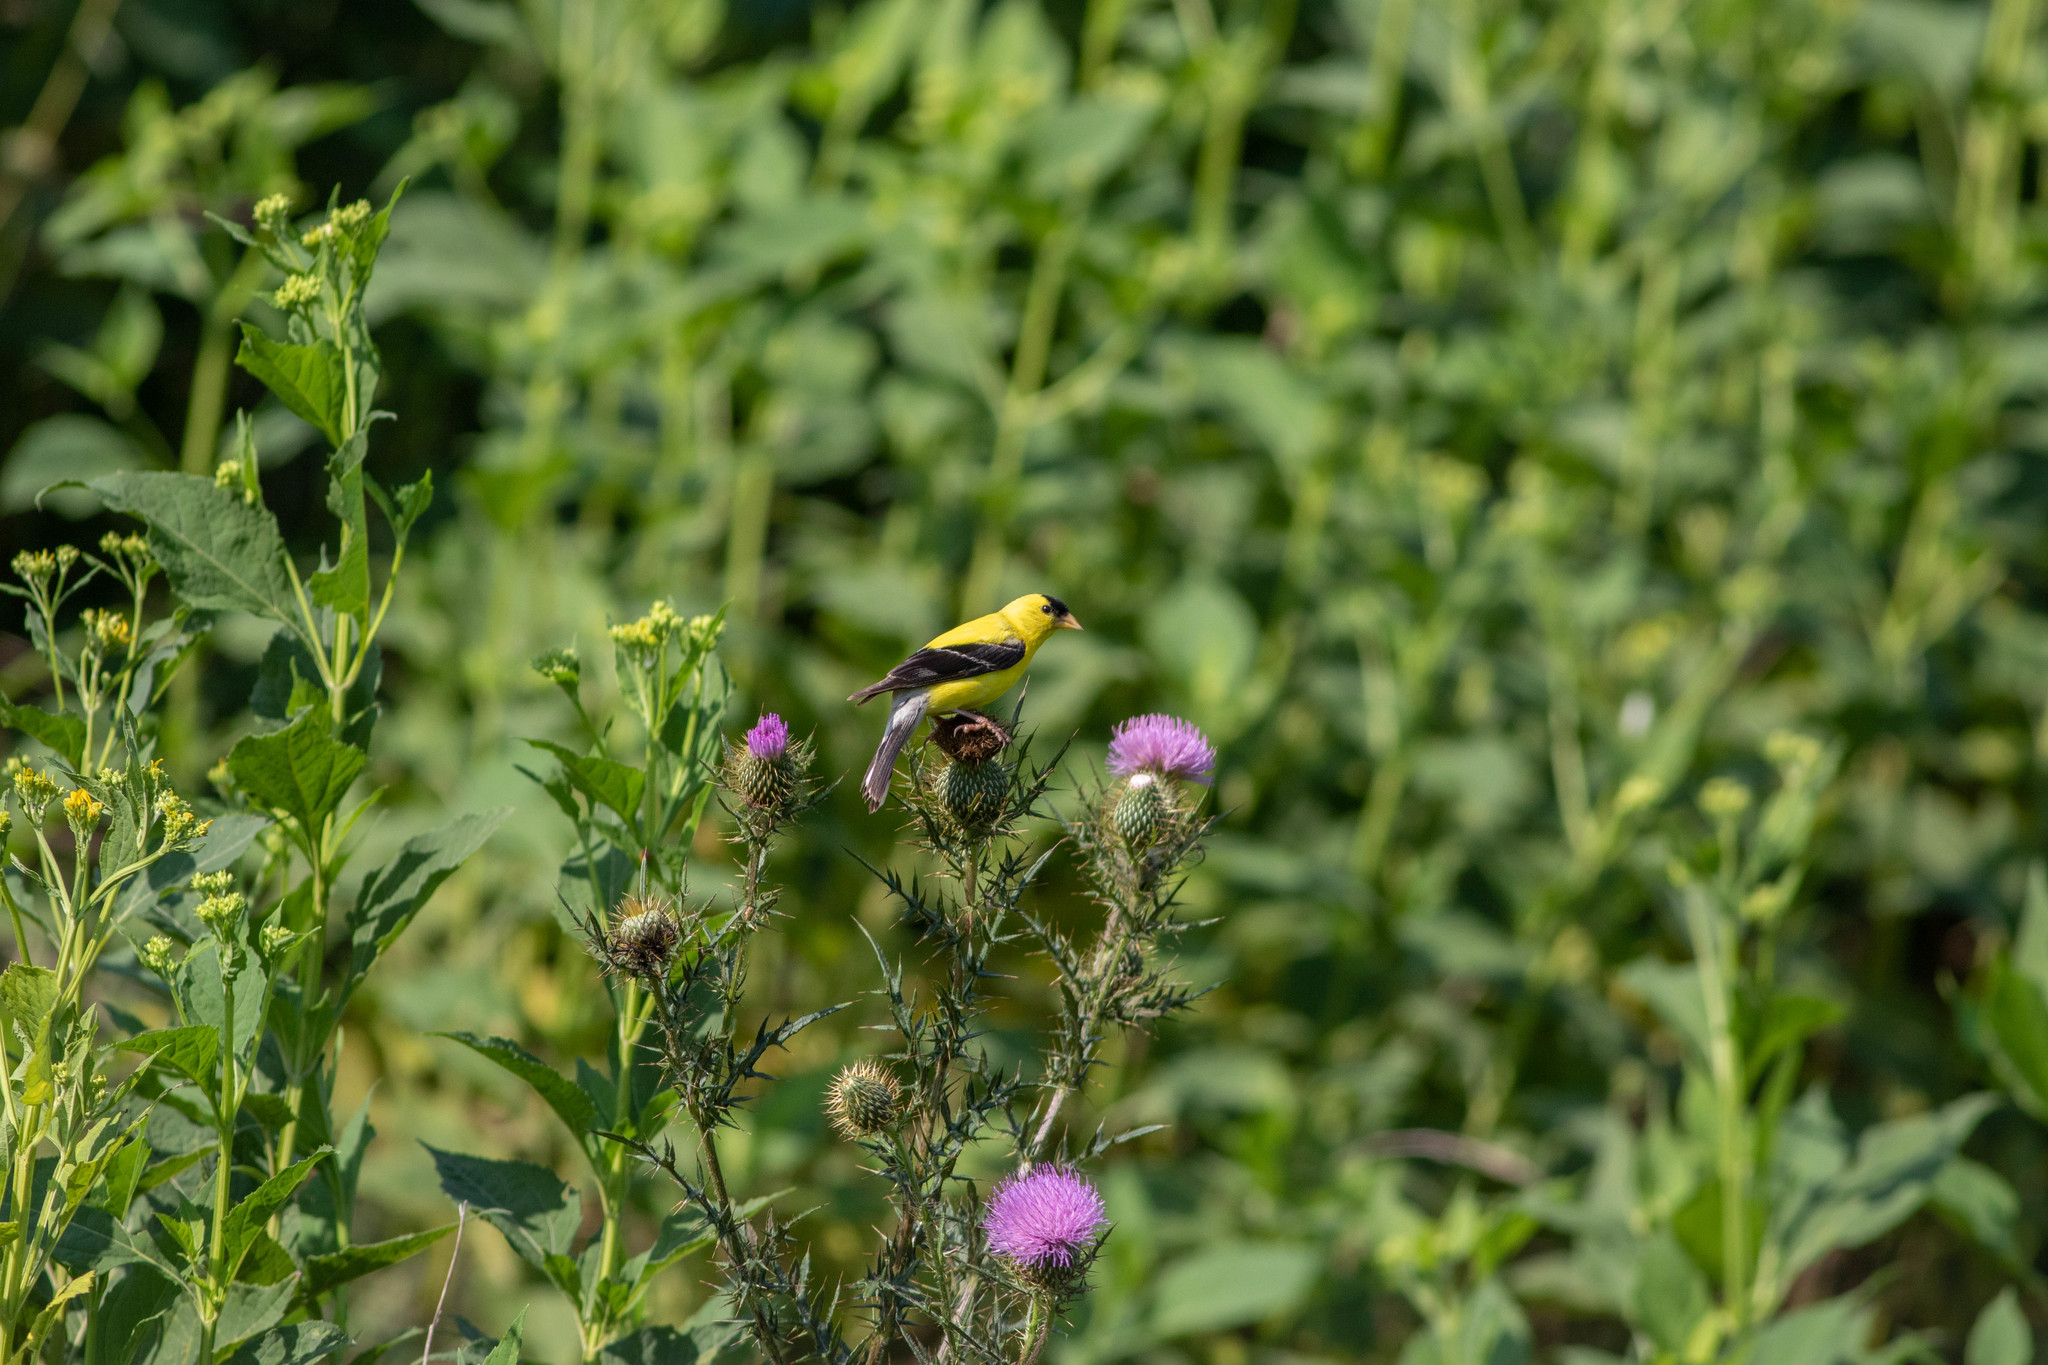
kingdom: Animalia
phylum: Chordata
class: Aves
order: Passeriformes
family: Fringillidae
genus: Spinus
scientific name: Spinus tristis
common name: American goldfinch
